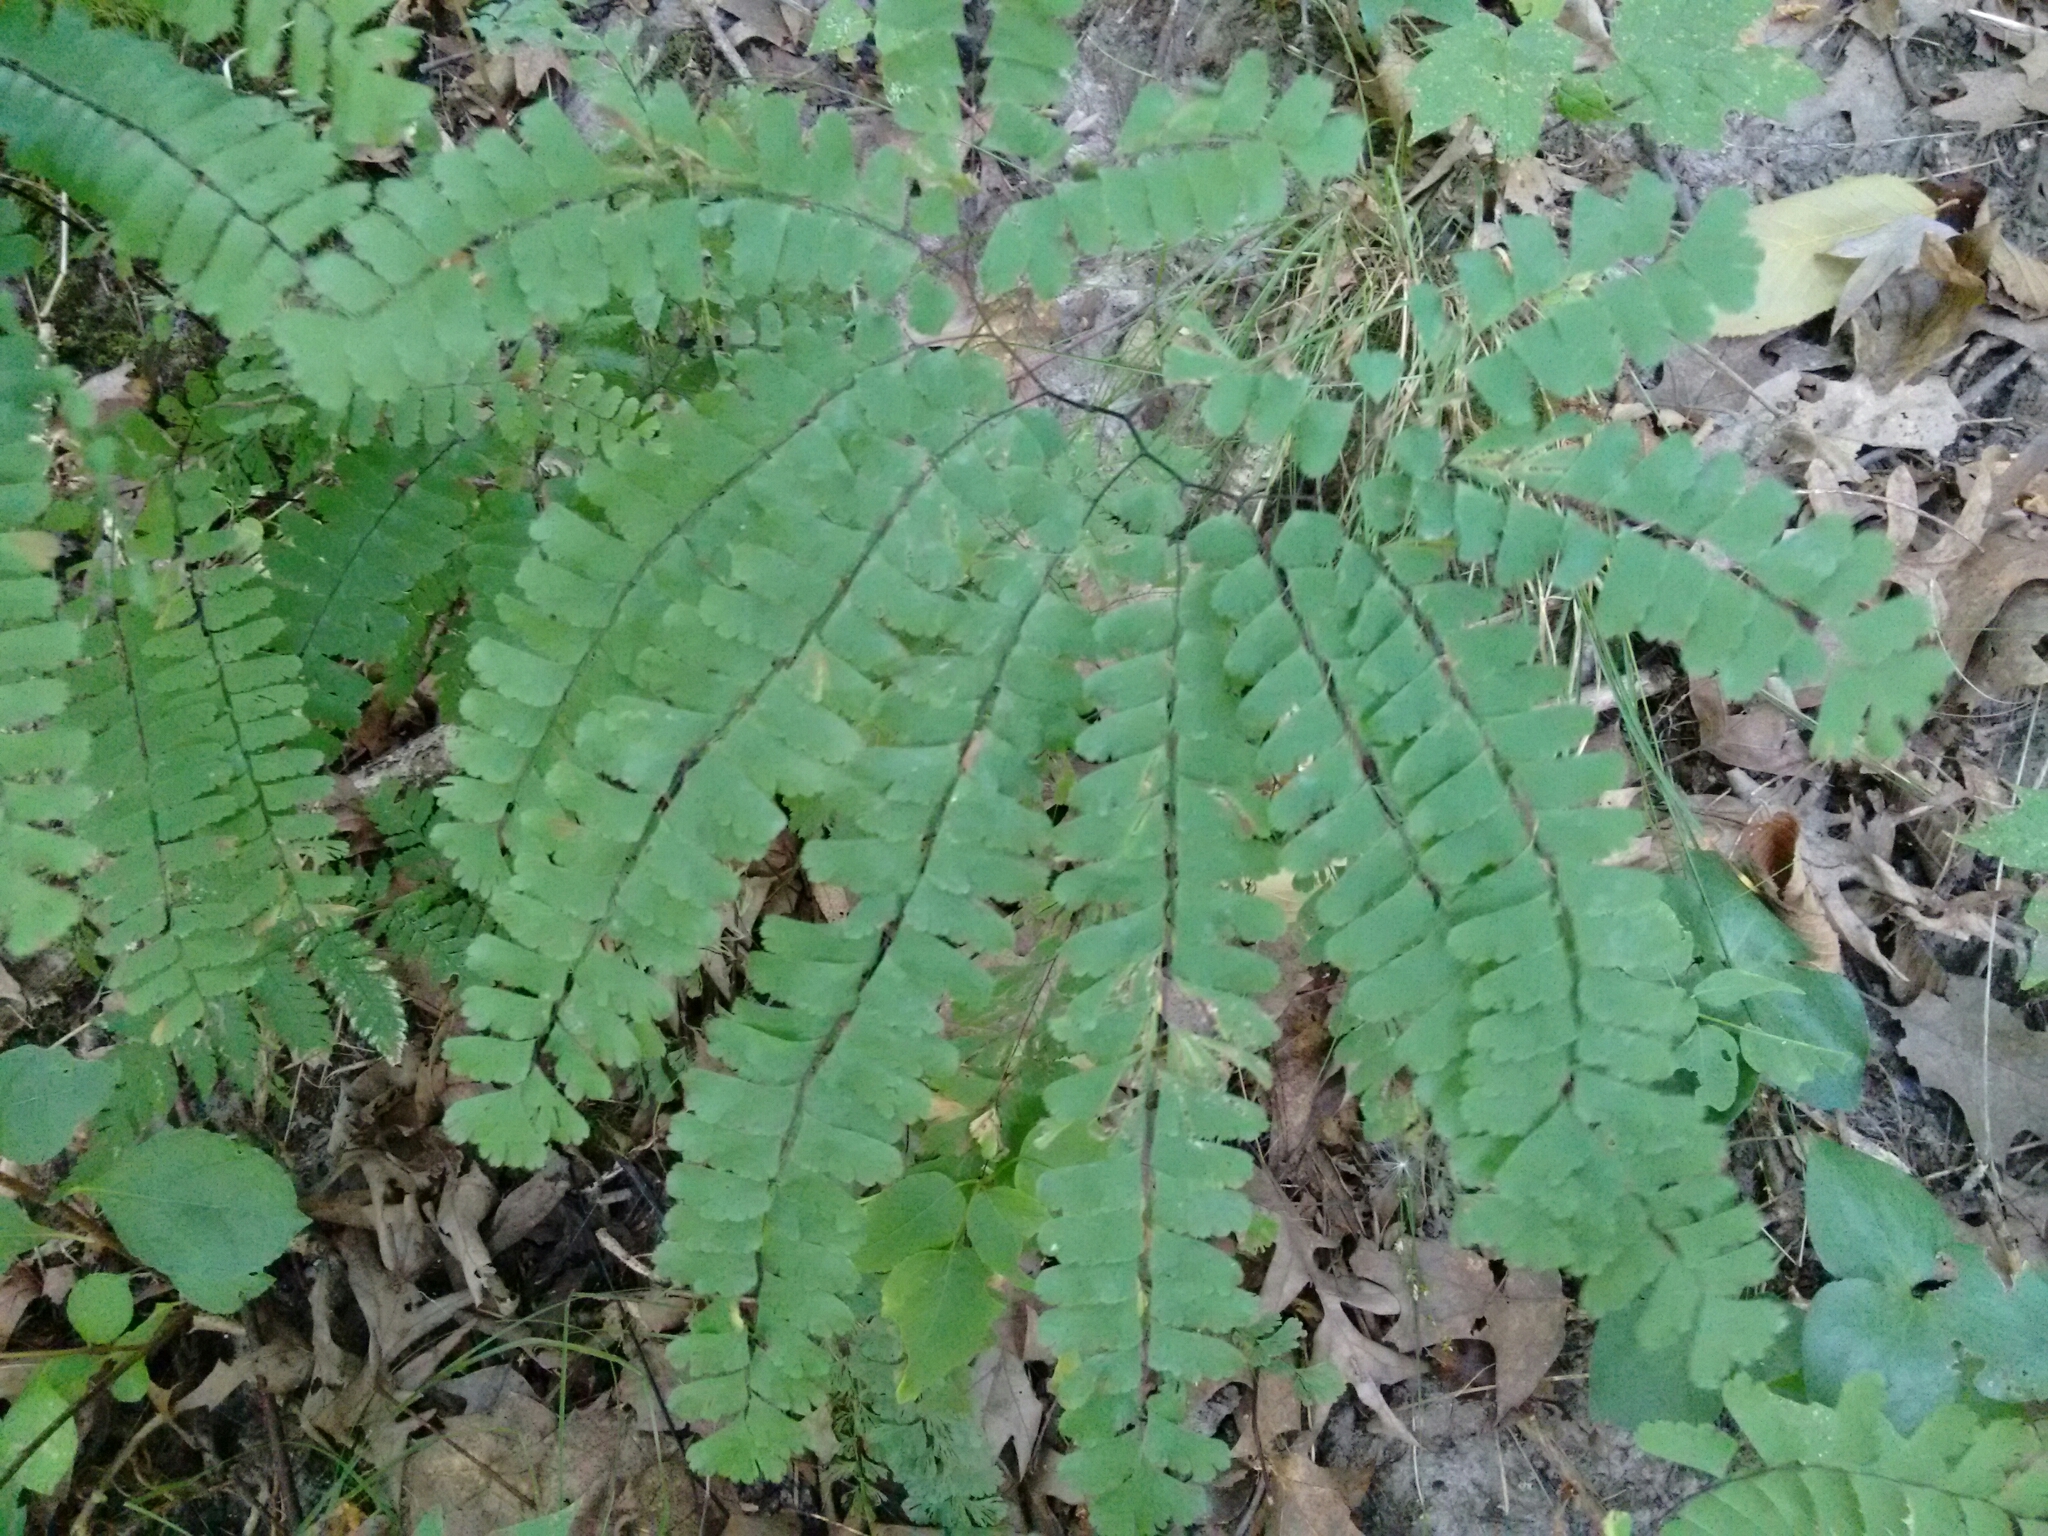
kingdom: Plantae
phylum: Tracheophyta
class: Polypodiopsida
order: Polypodiales
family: Pteridaceae
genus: Adiantum
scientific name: Adiantum pedatum
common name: Five-finger fern
